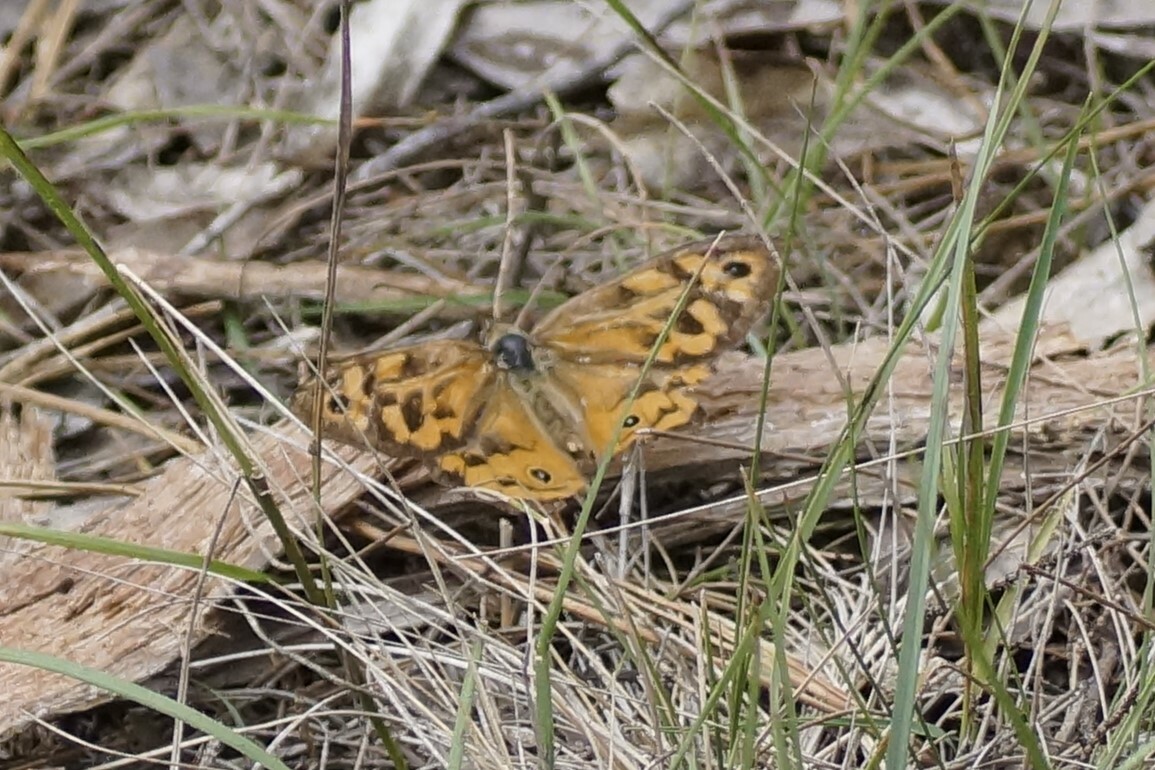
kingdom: Animalia
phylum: Arthropoda
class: Insecta
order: Lepidoptera
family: Nymphalidae
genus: Heteronympha
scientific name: Heteronympha merope
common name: Common brown
